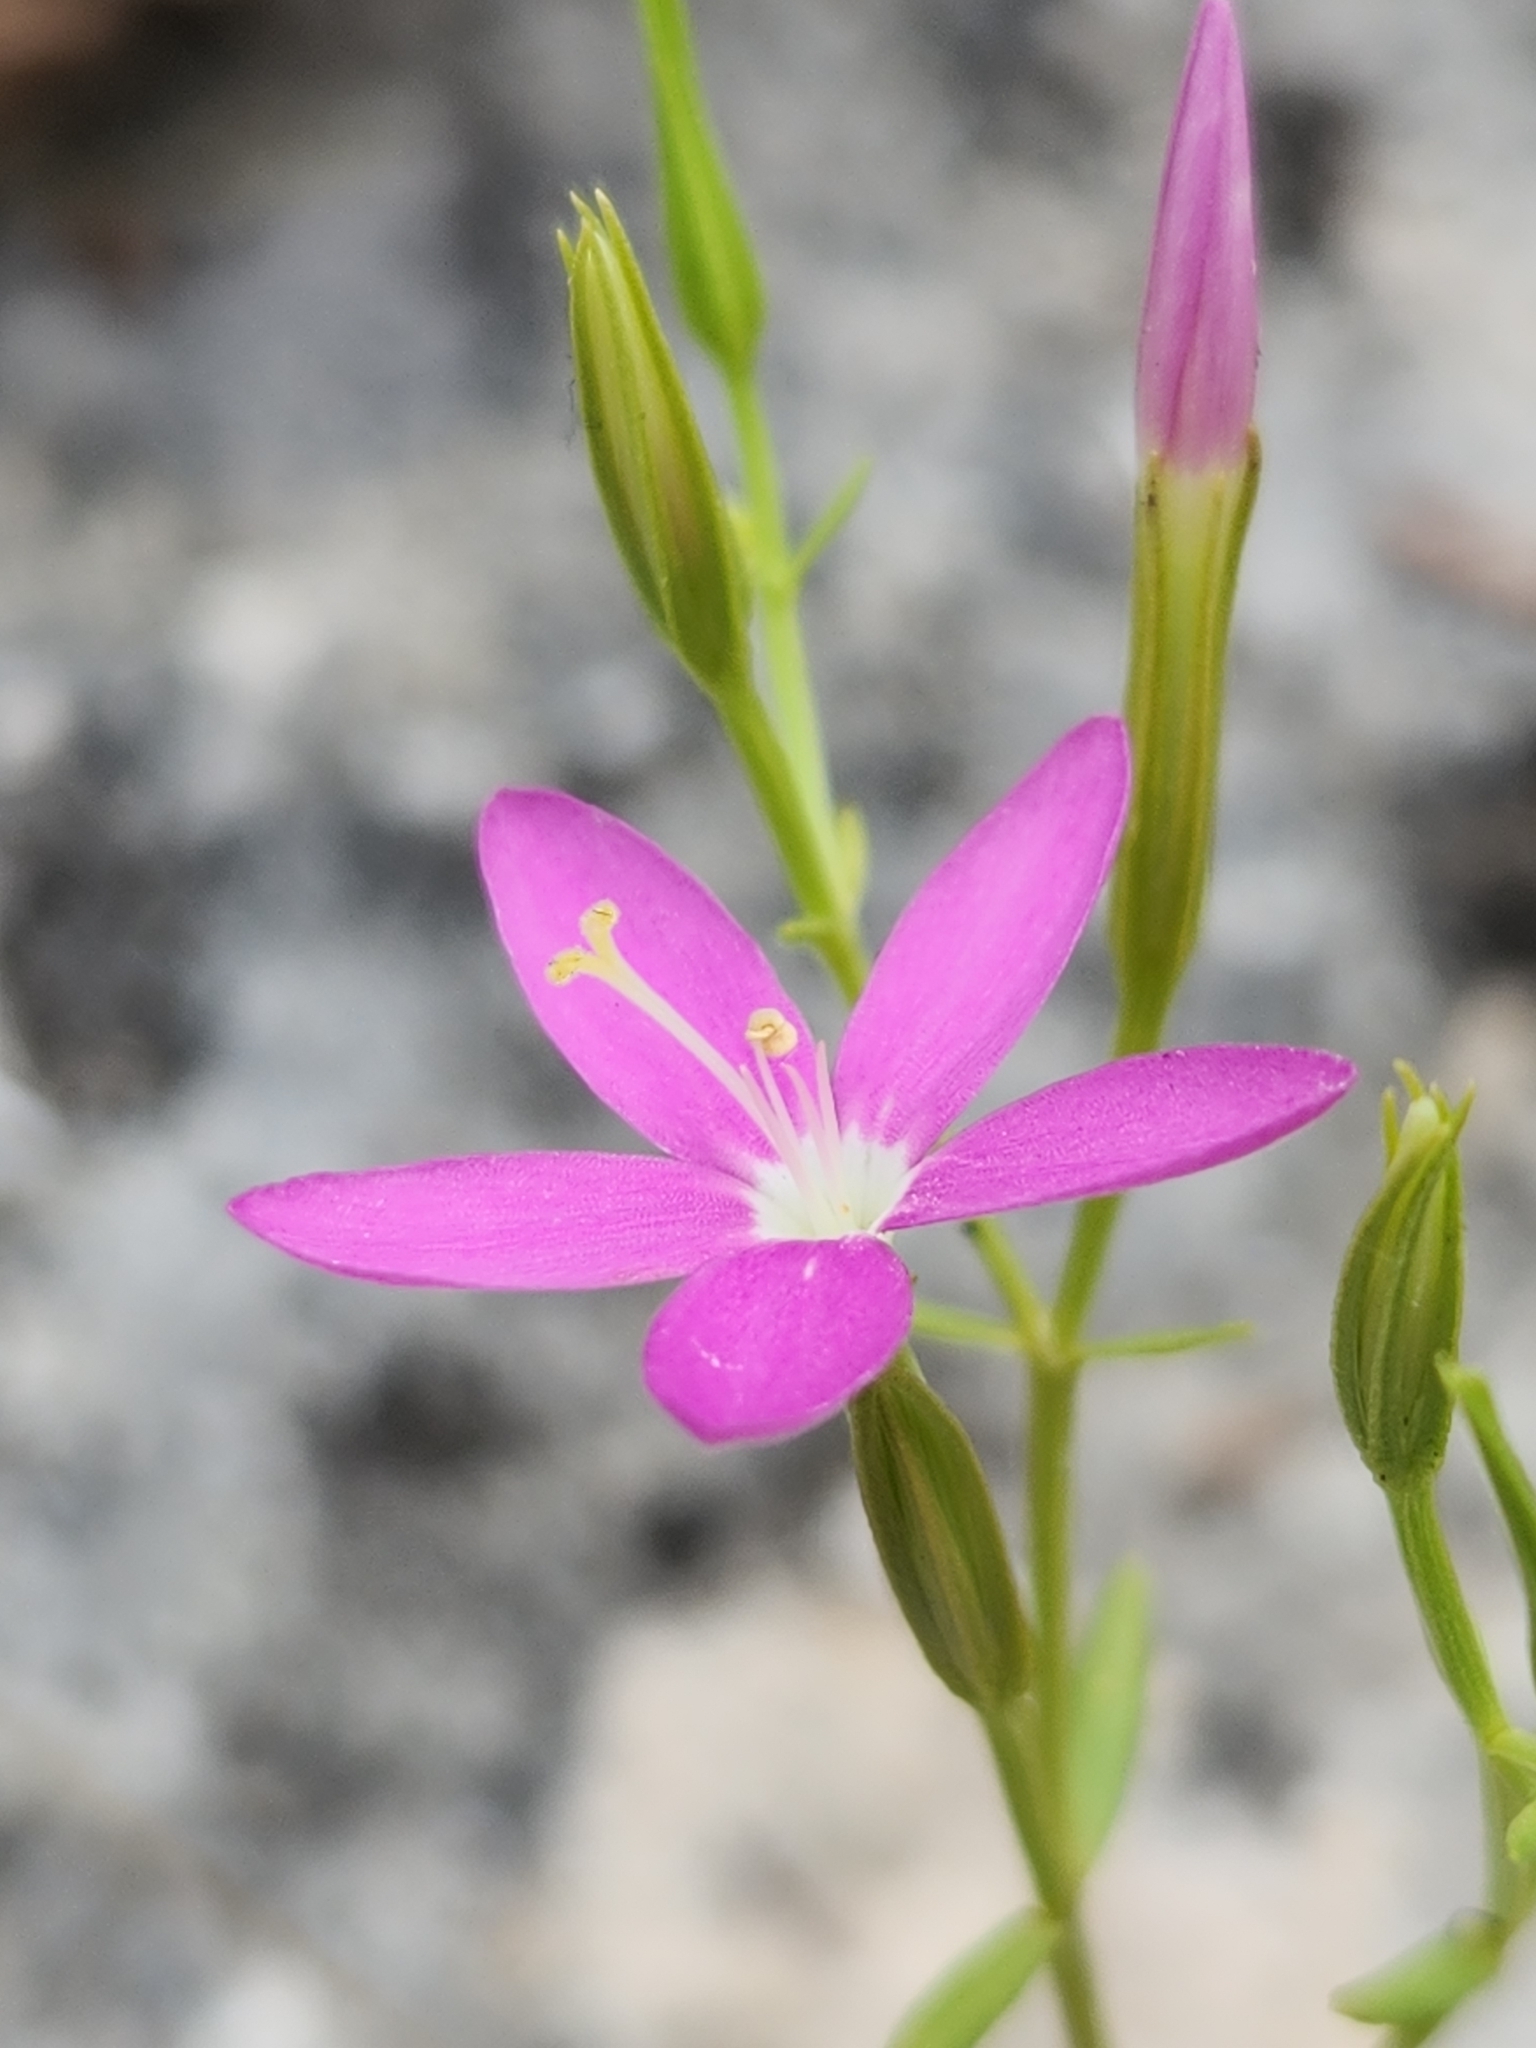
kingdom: Plantae
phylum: Tracheophyta
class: Magnoliopsida
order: Gentianales
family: Gentianaceae
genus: Zeltnera
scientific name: Zeltnera calycosa
